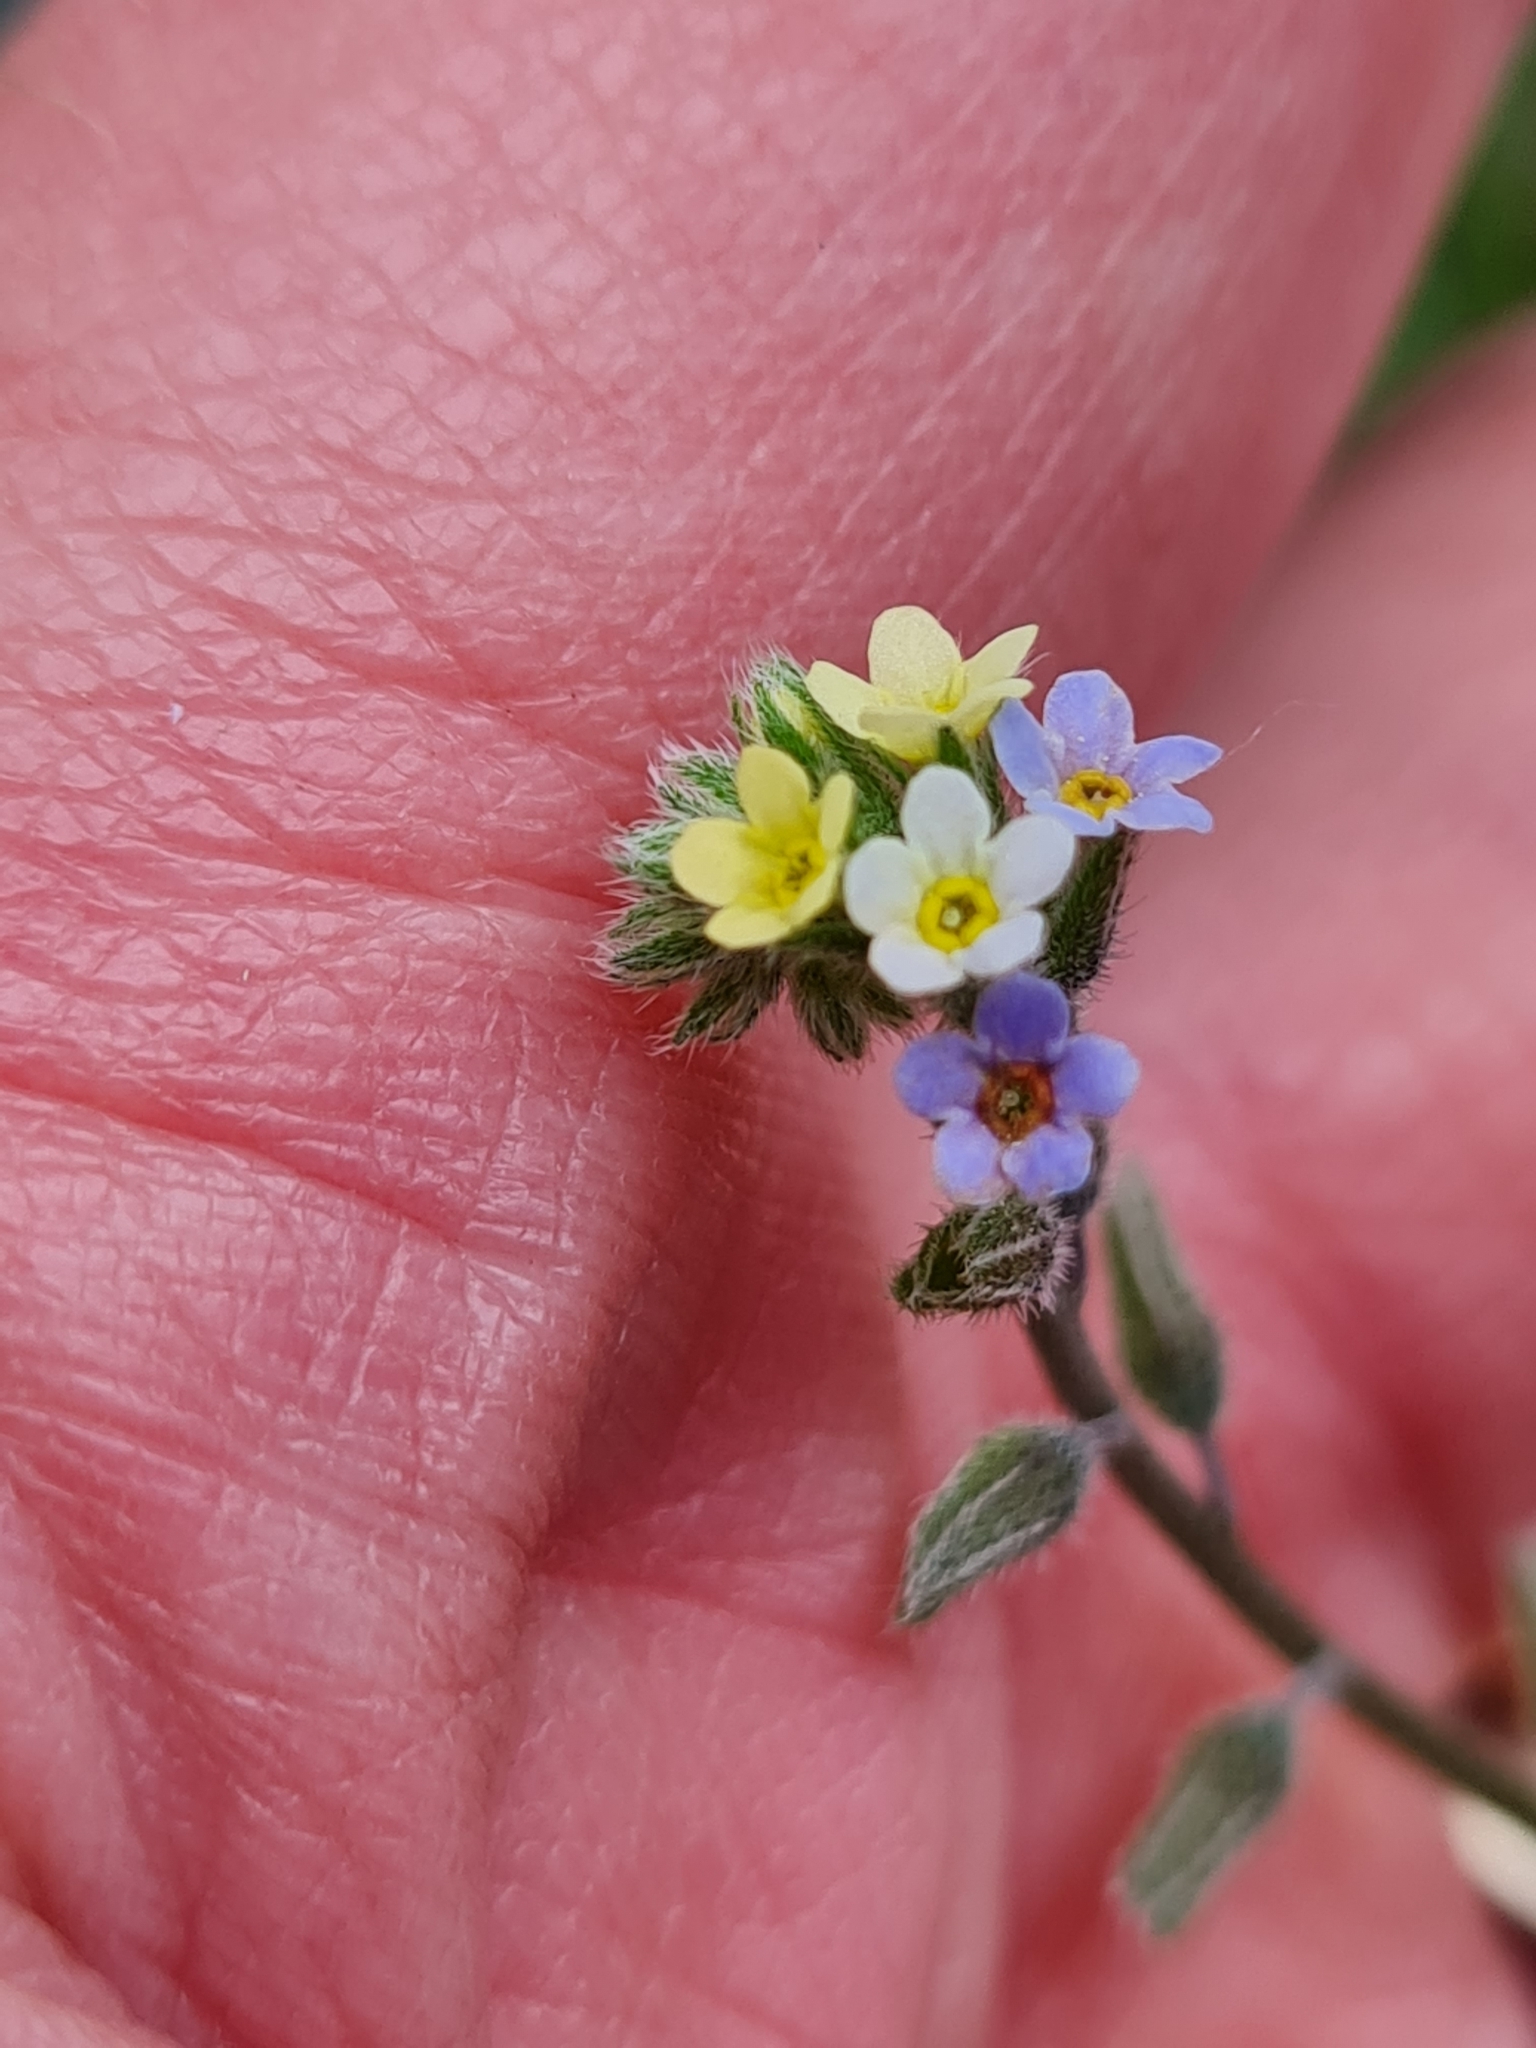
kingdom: Plantae
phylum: Tracheophyta
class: Magnoliopsida
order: Boraginales
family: Boraginaceae
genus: Myosotis
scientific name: Myosotis discolor
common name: Changing forget-me-not
